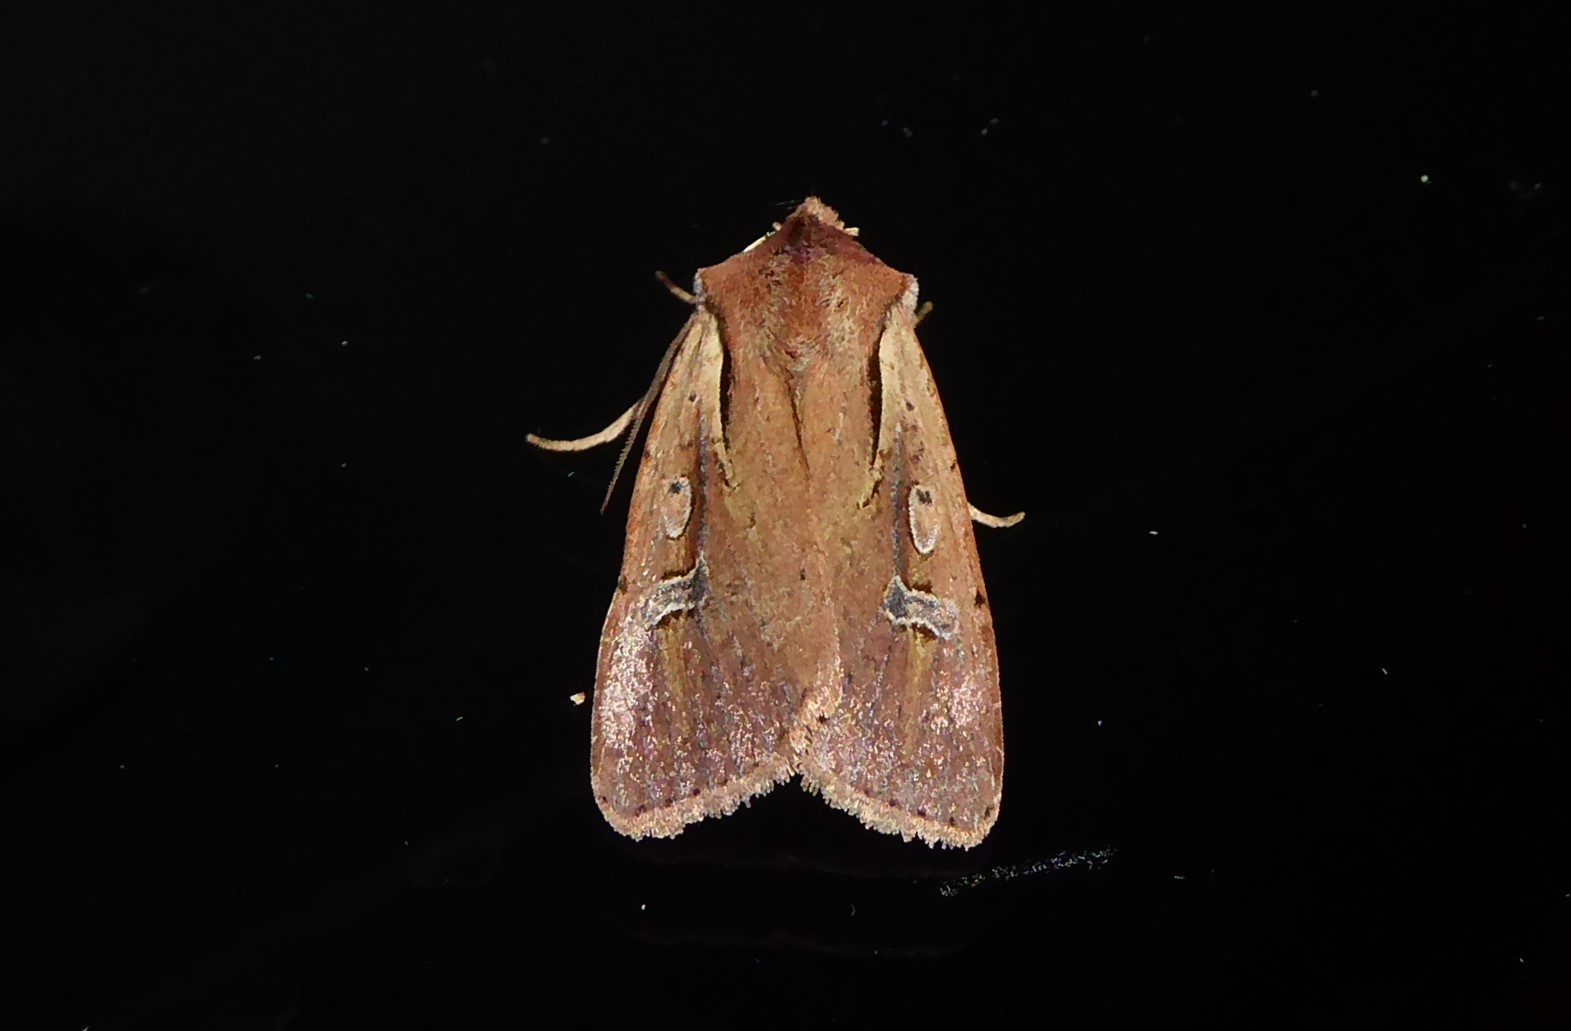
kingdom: Animalia
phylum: Arthropoda
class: Insecta
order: Lepidoptera
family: Noctuidae
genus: Ichneutica
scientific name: Ichneutica atristriga
